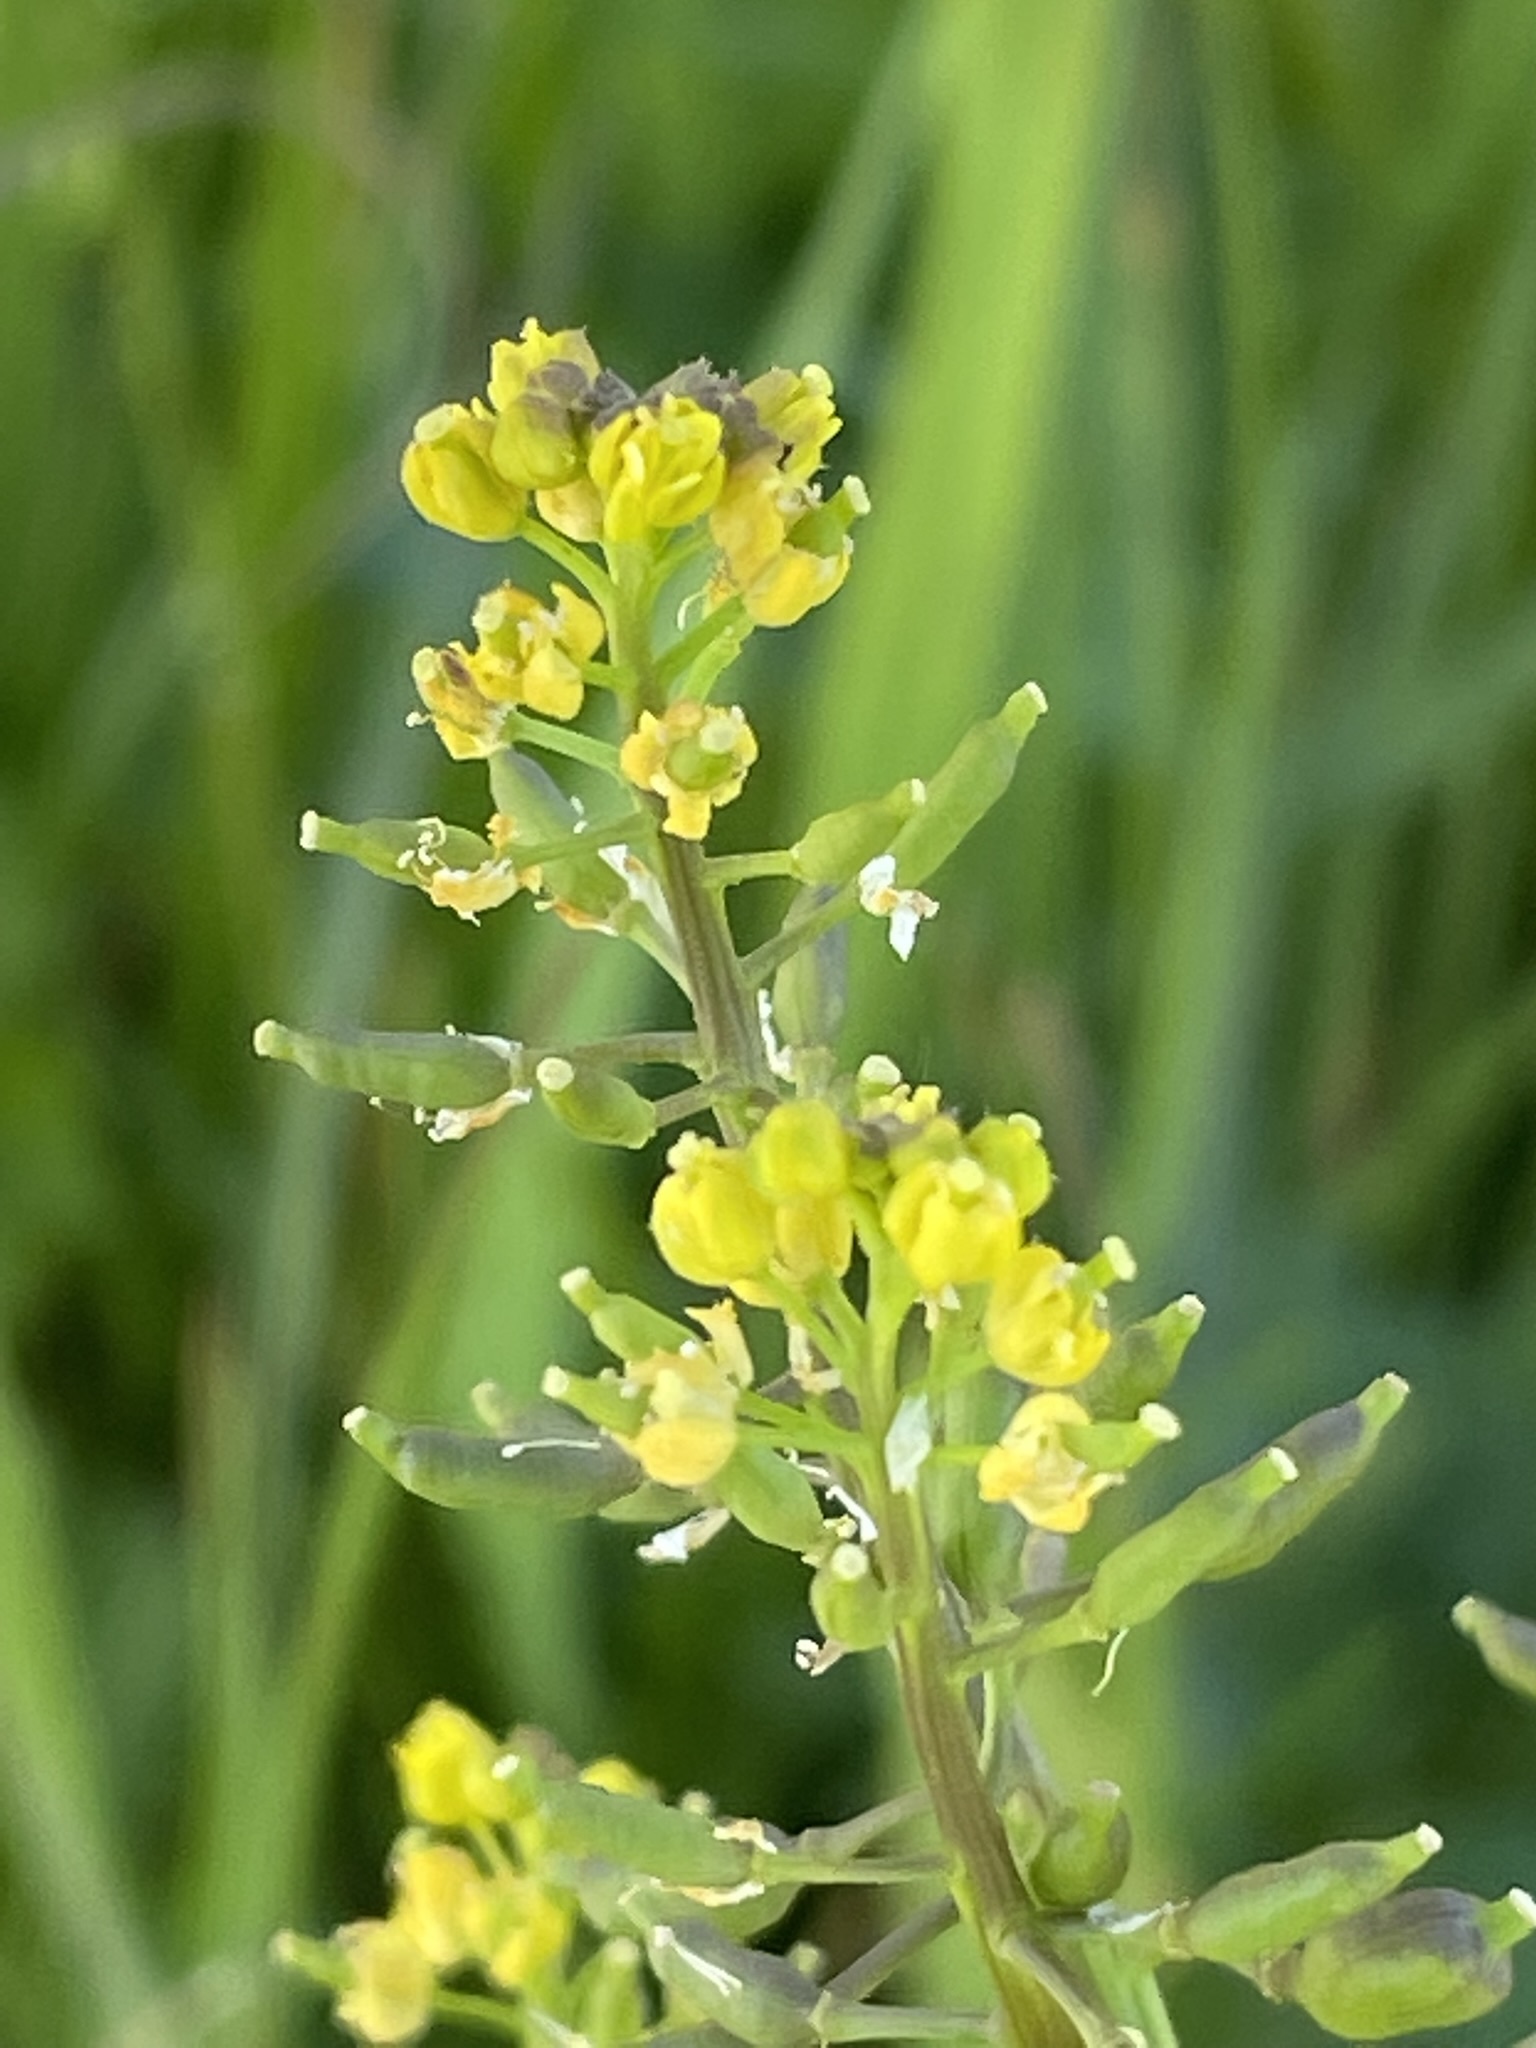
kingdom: Plantae
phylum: Tracheophyta
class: Magnoliopsida
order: Brassicales
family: Brassicaceae
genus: Rorippa
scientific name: Rorippa palustris
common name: Marsh yellow-cress
